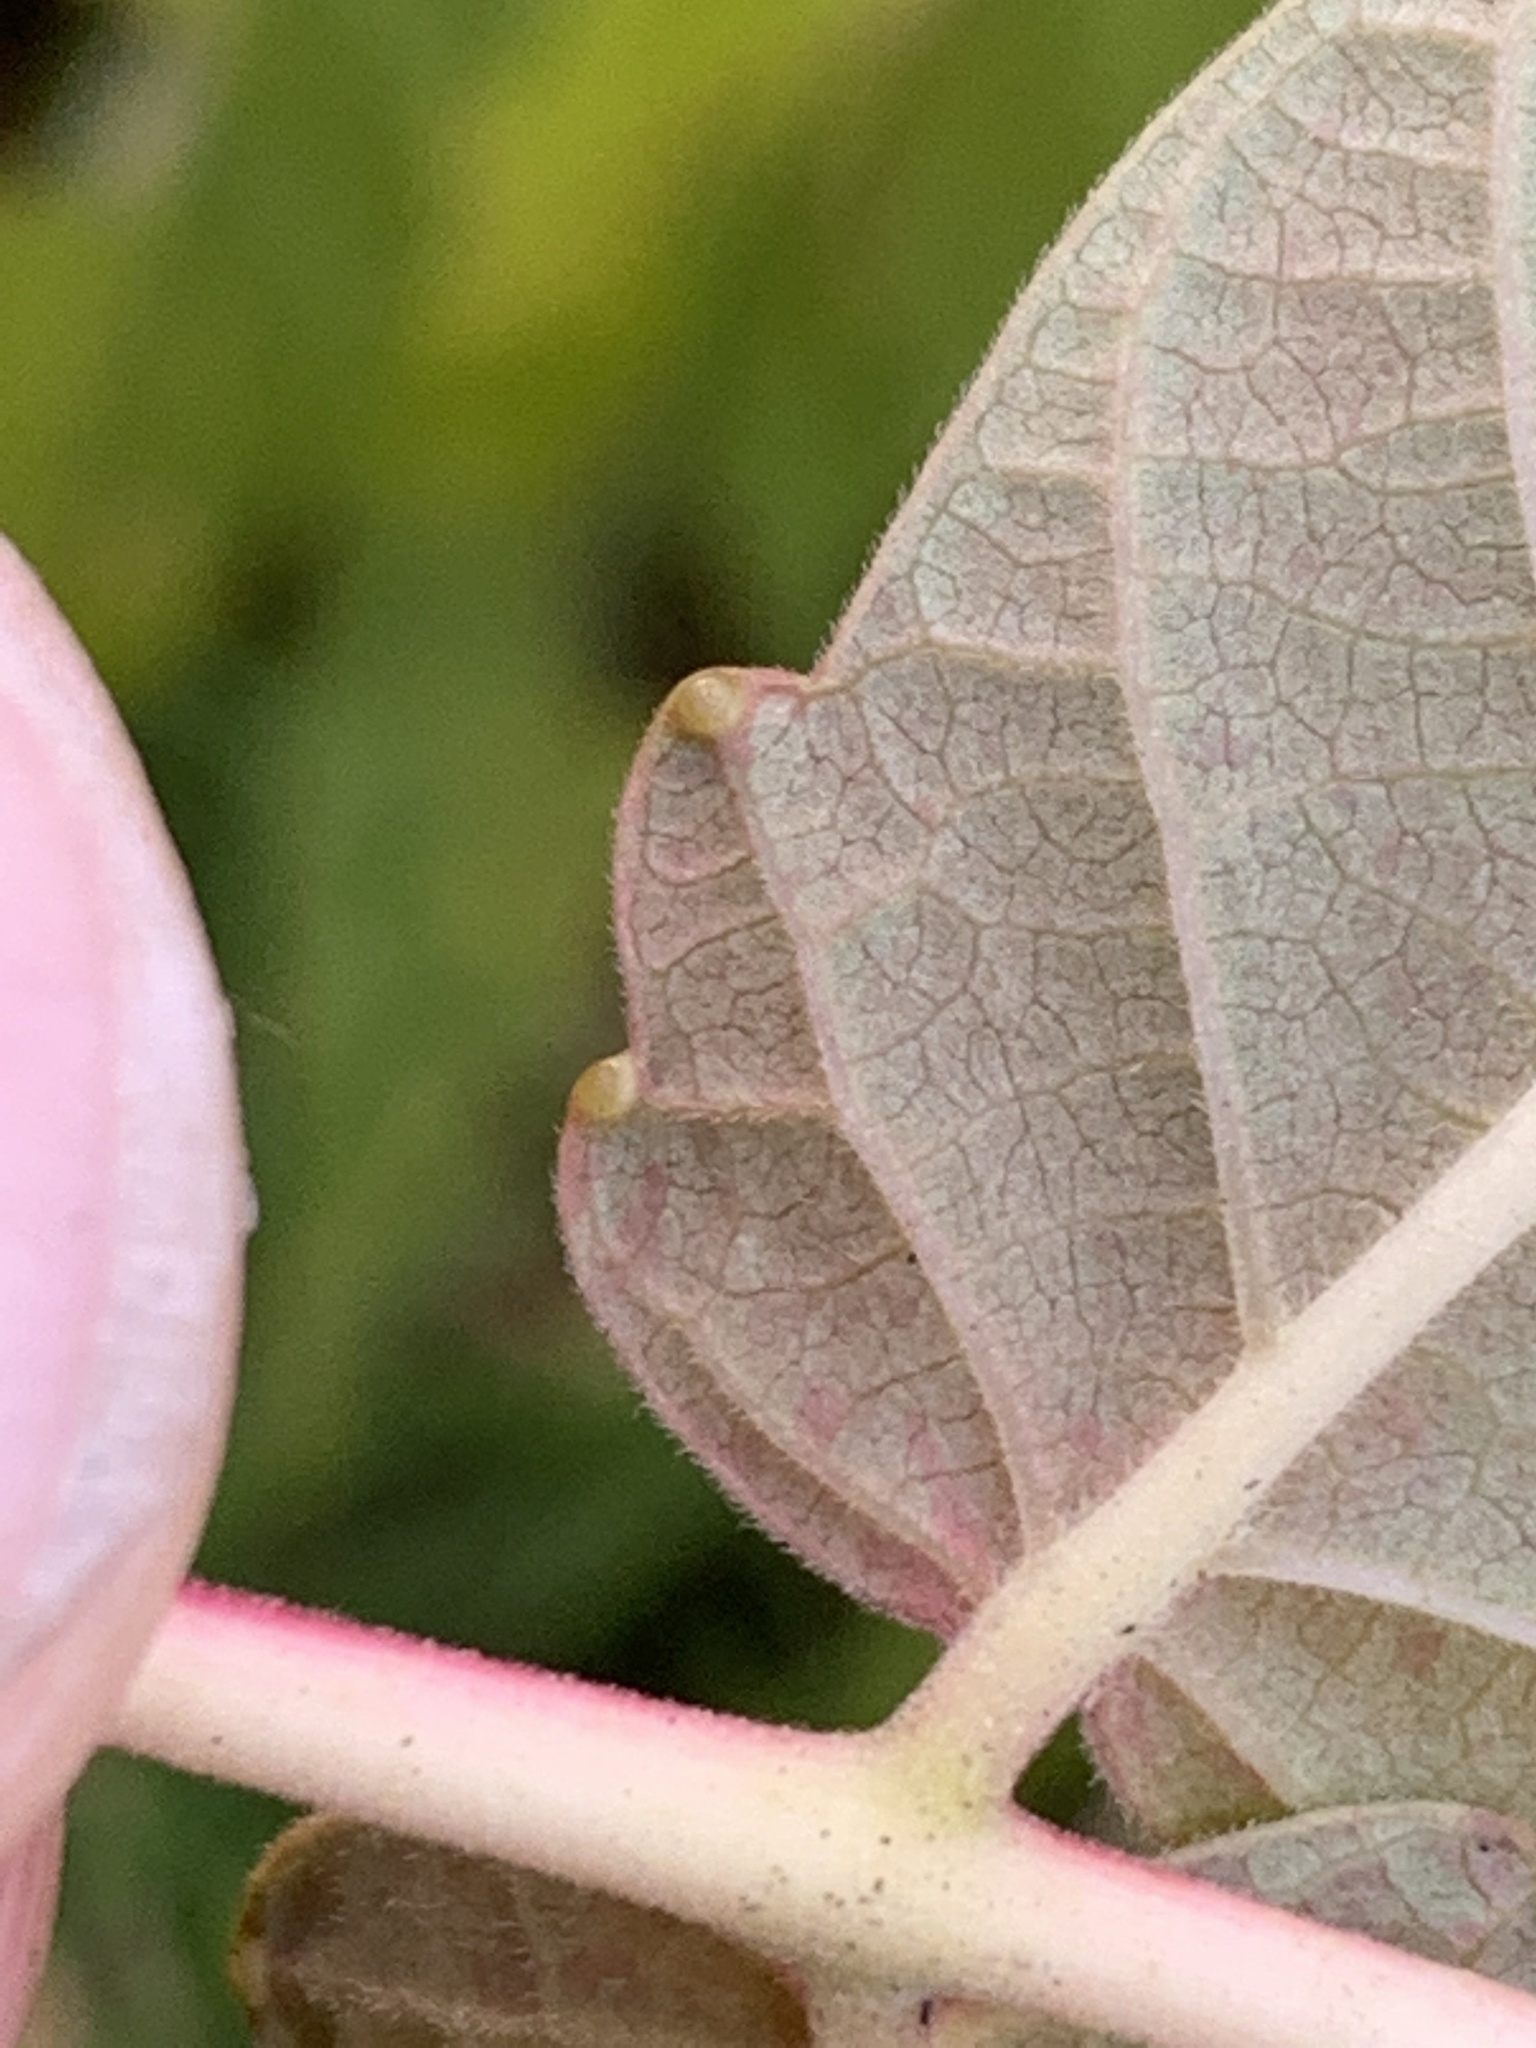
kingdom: Plantae
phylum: Tracheophyta
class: Magnoliopsida
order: Sapindales
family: Simaroubaceae
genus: Ailanthus
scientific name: Ailanthus altissima
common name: Tree-of-heaven
